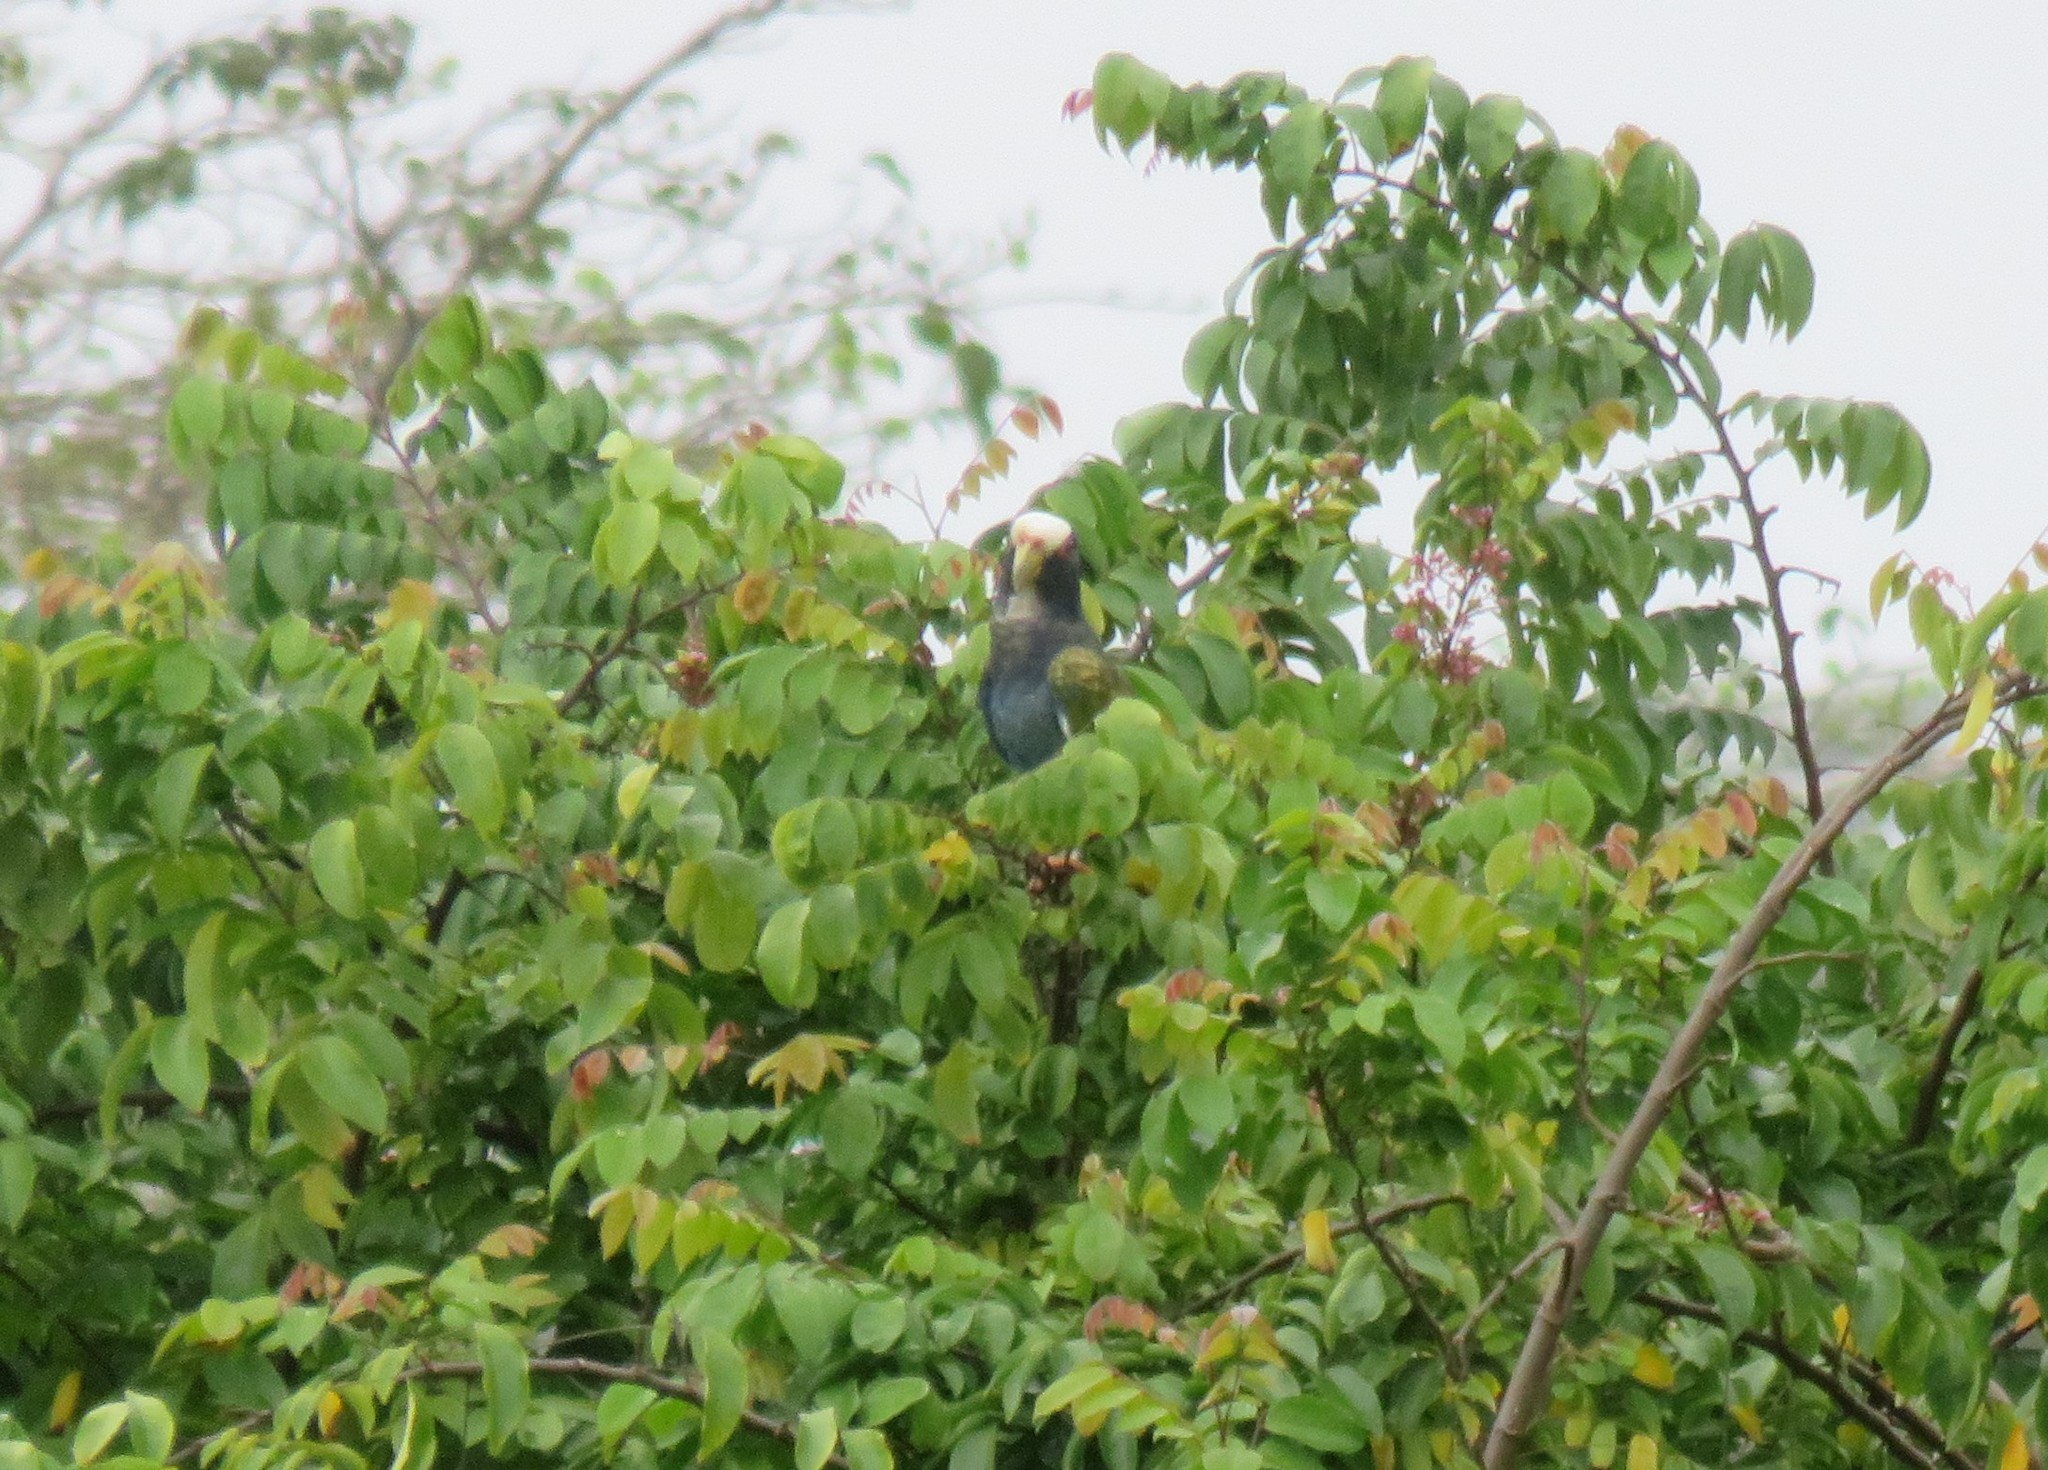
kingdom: Animalia
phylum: Chordata
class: Aves
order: Psittaciformes
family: Psittacidae
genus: Pionus
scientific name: Pionus senilis
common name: White-crowned parrot
